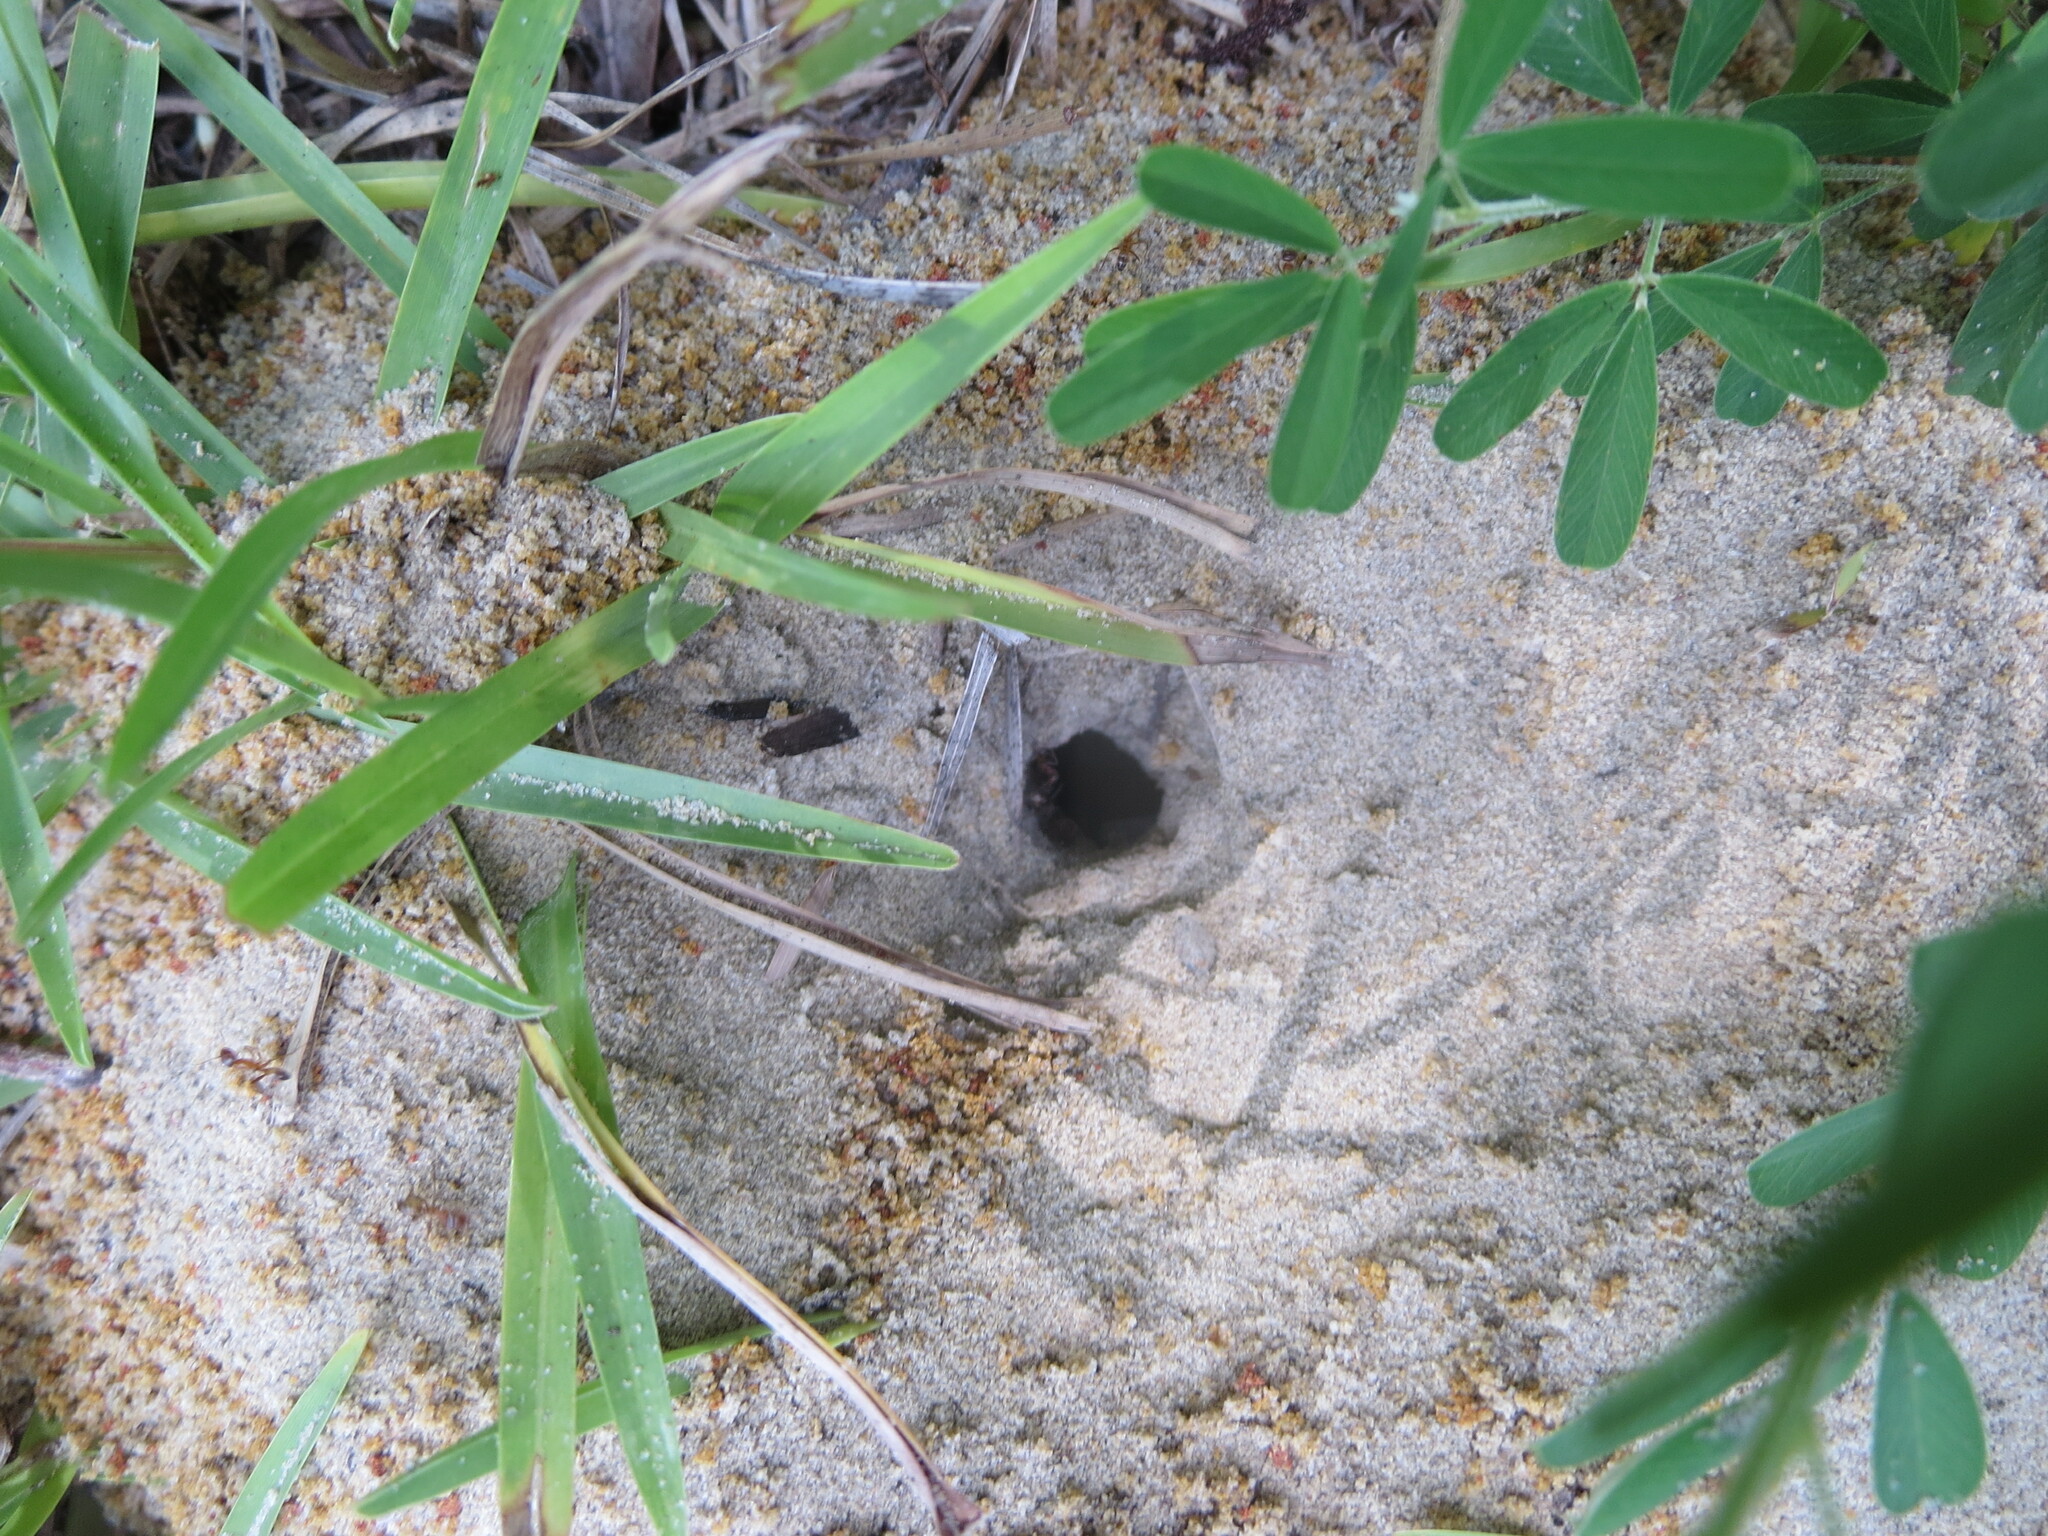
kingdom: Animalia
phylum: Arthropoda
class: Insecta
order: Hymenoptera
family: Formicidae
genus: Dorymyrmex
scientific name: Dorymyrmex bureni
